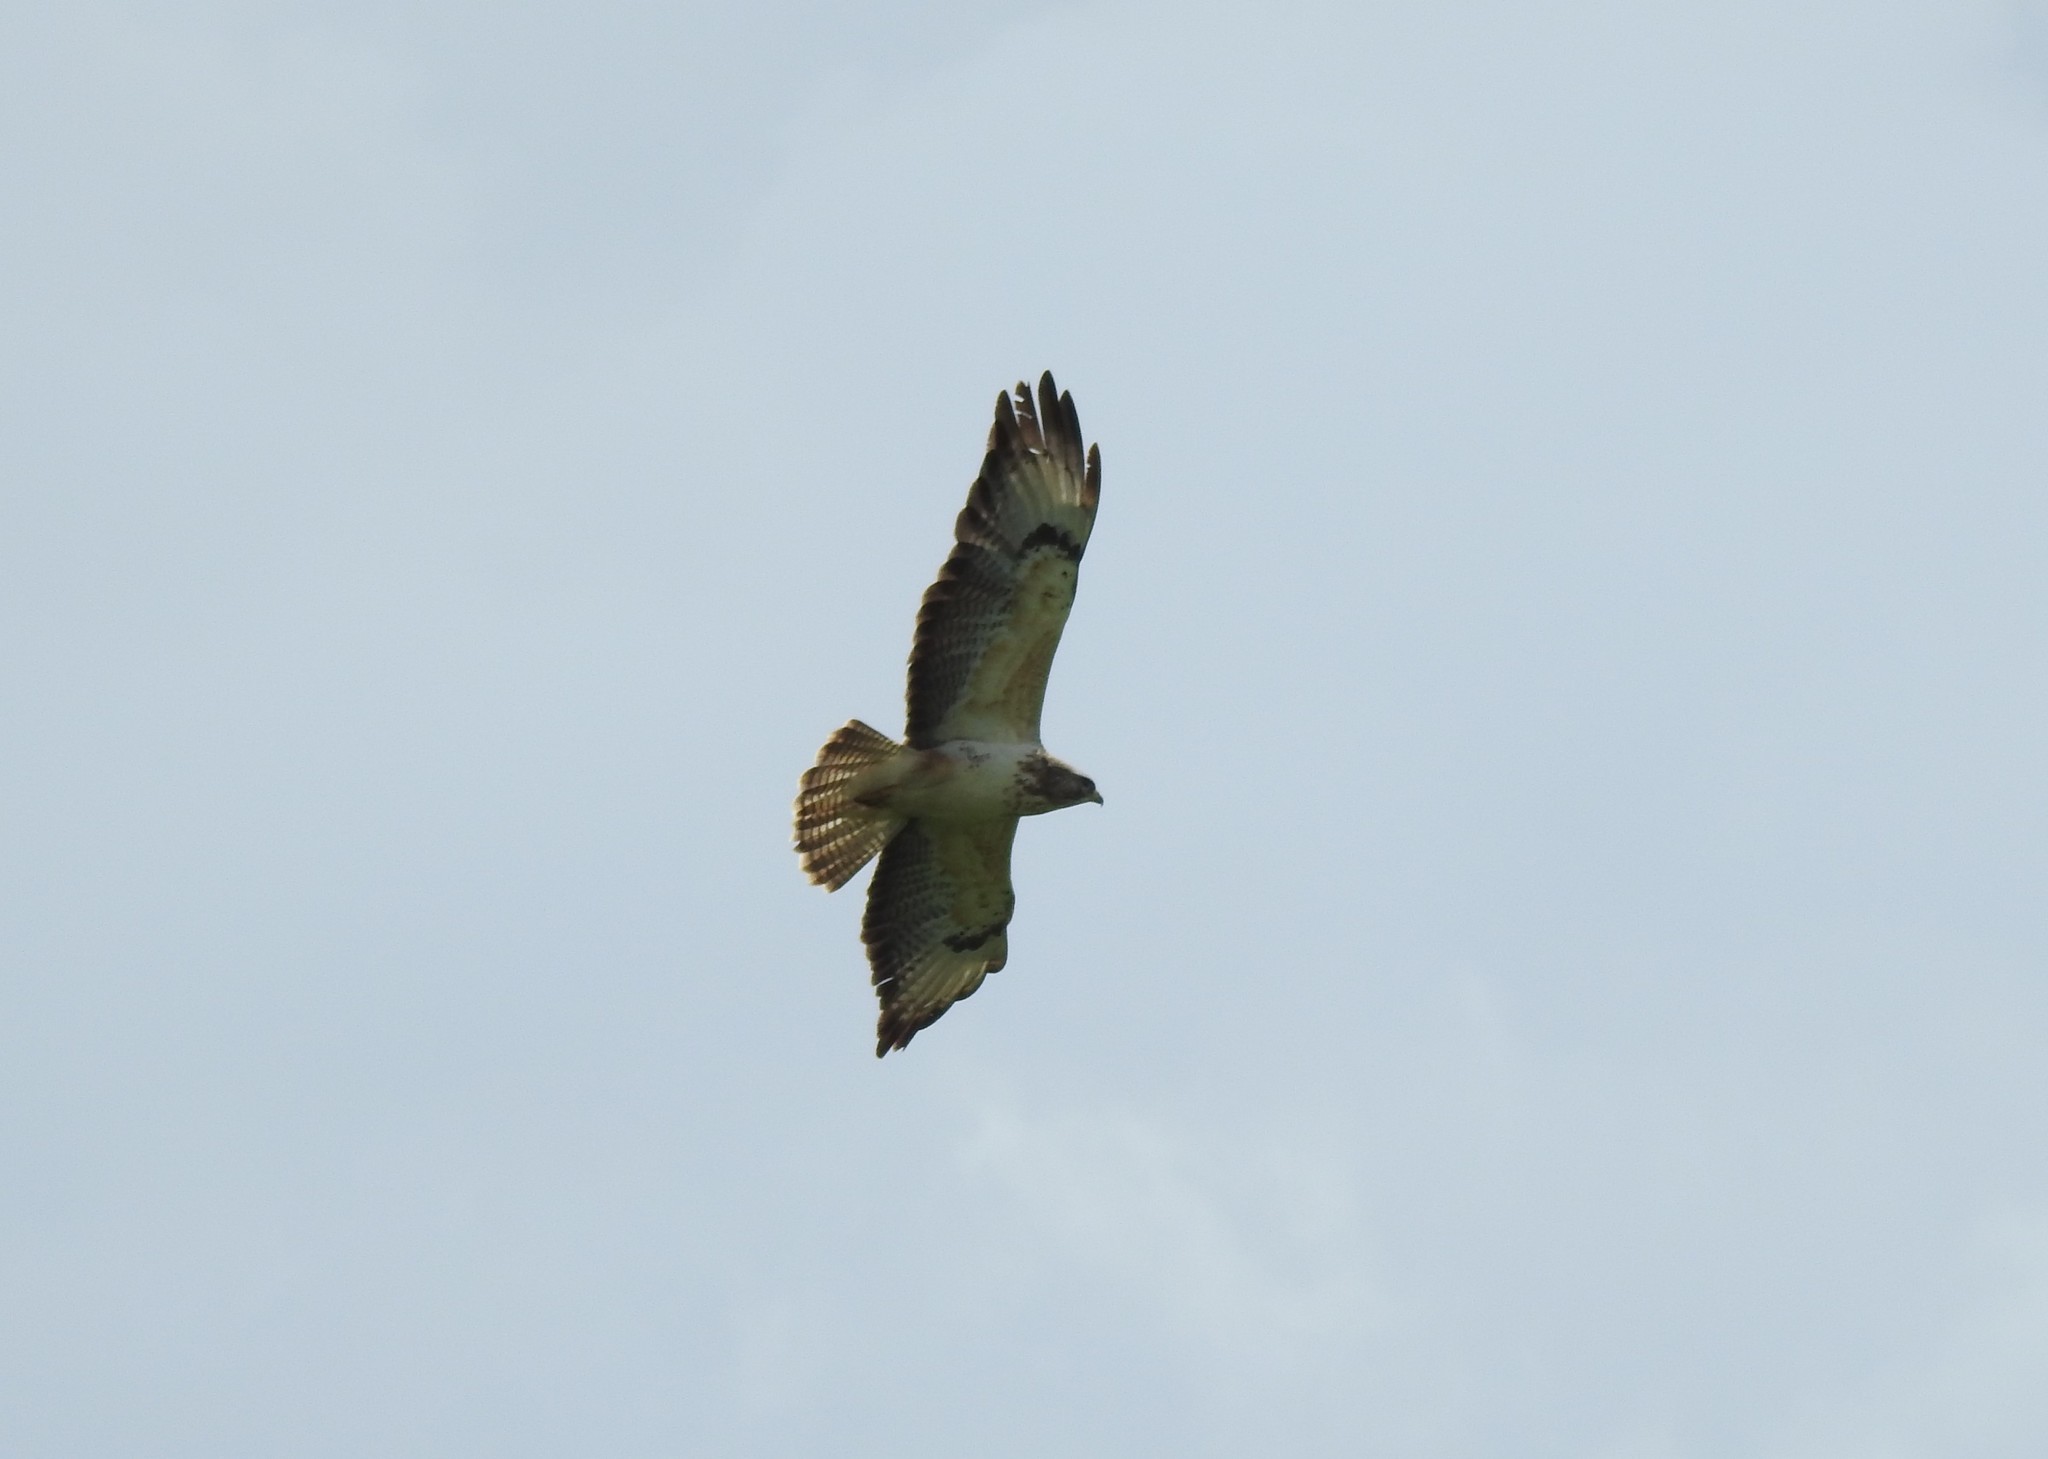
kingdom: Animalia
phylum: Chordata
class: Aves
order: Accipitriformes
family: Accipitridae
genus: Buteo
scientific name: Buteo buteo
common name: Common buzzard
